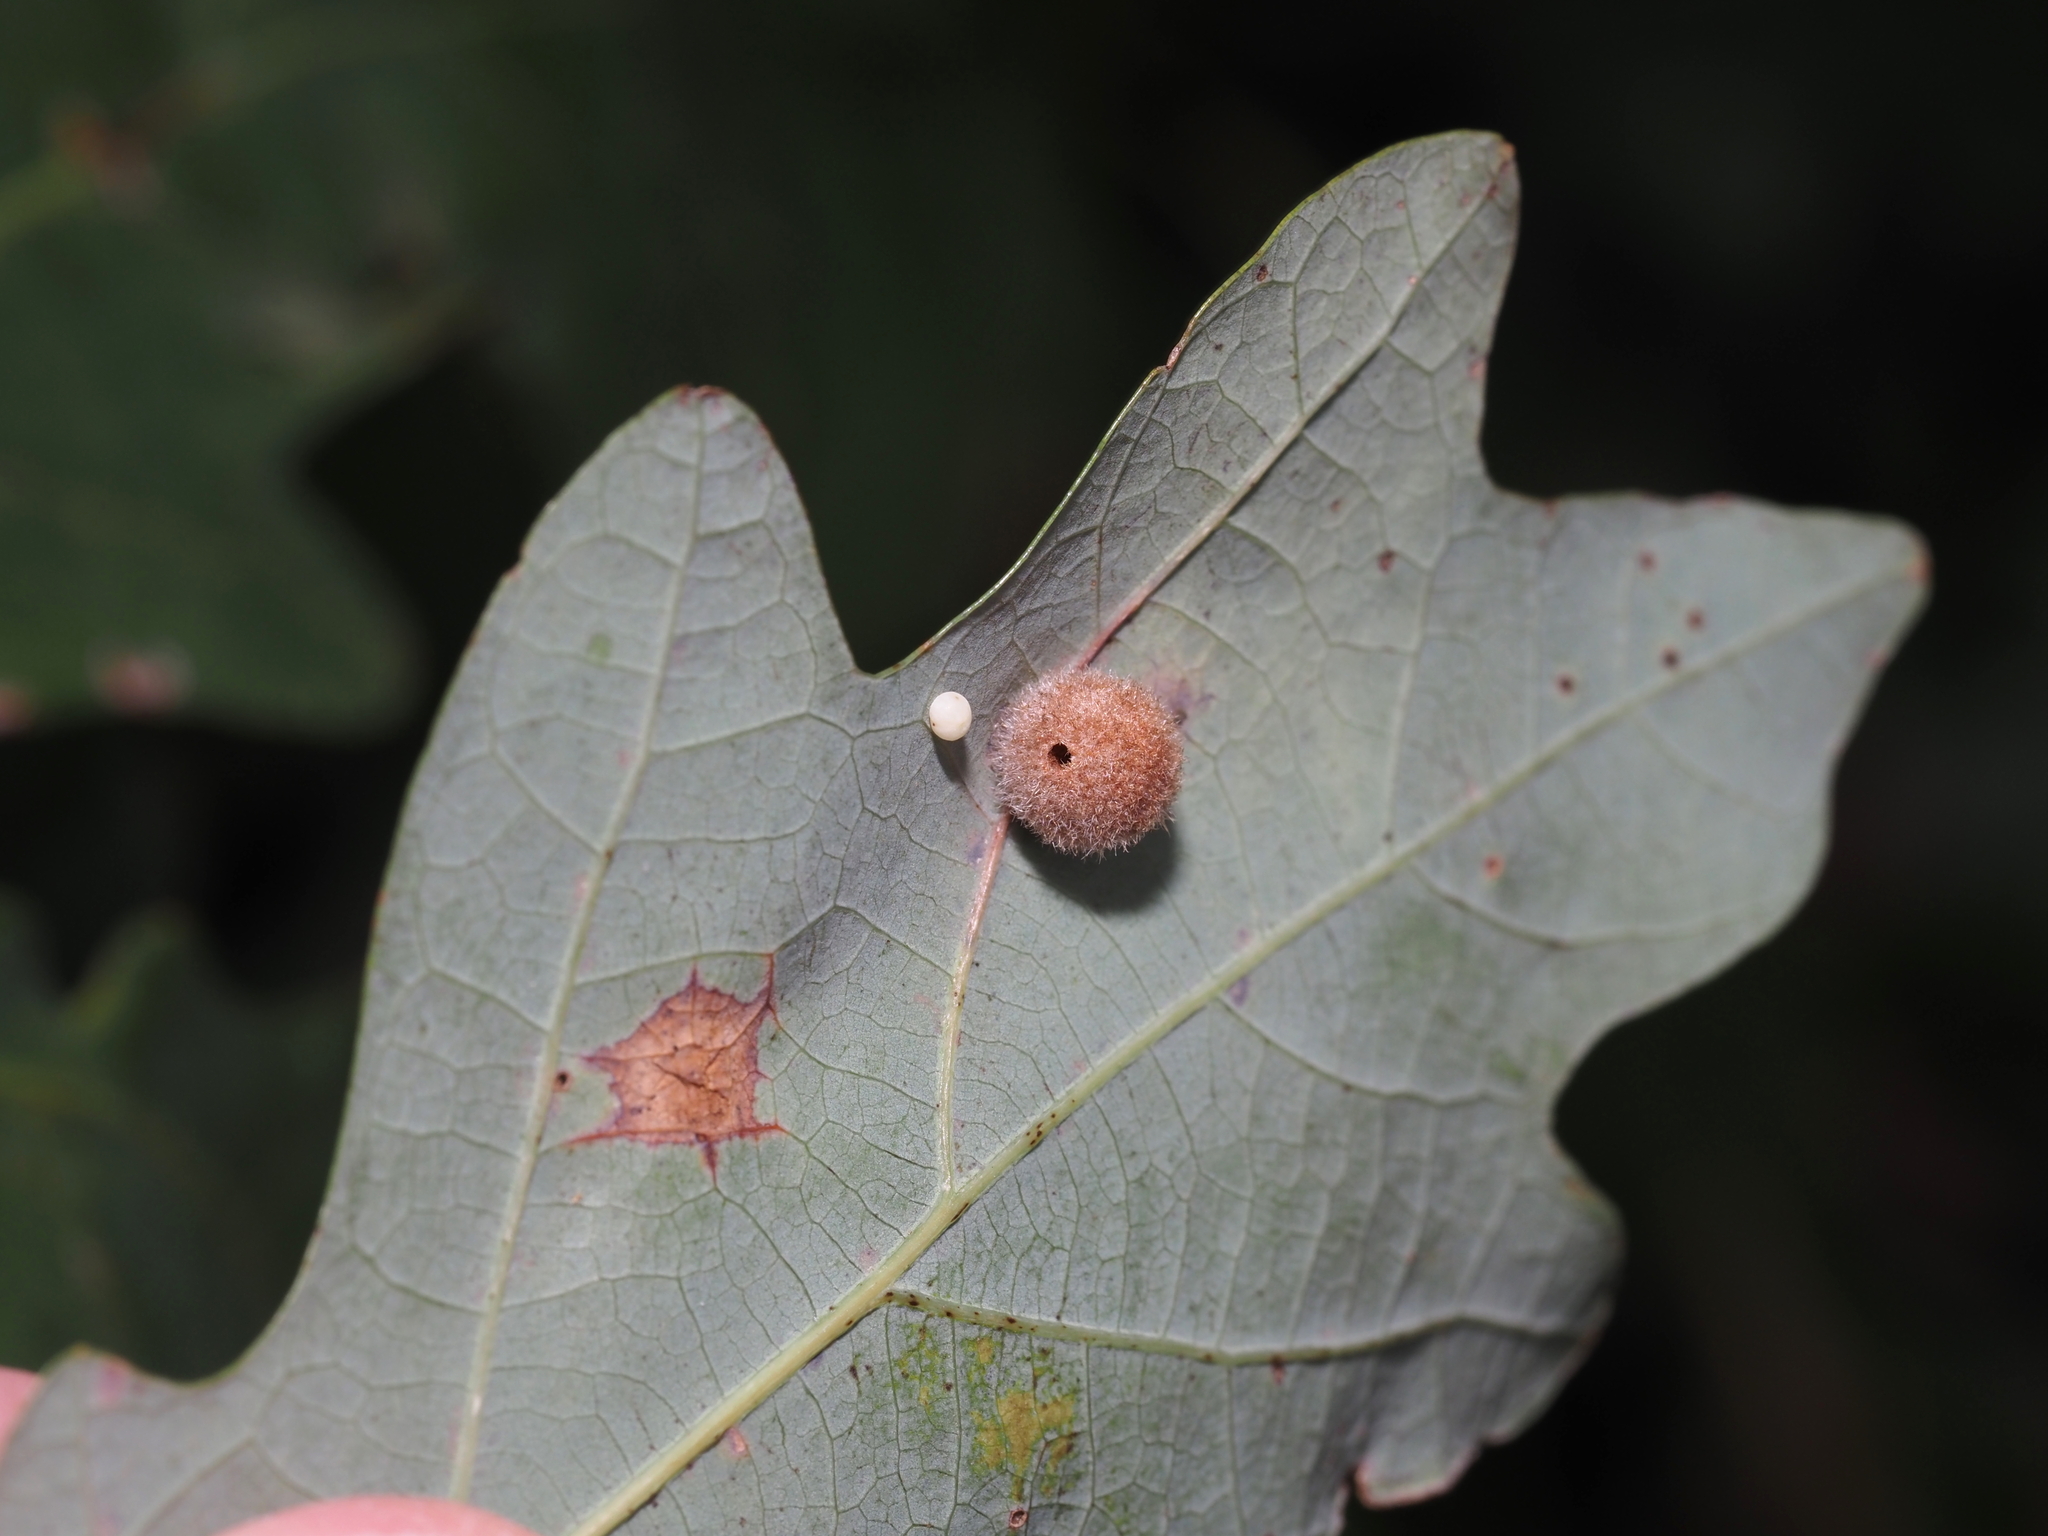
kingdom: Animalia
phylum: Arthropoda
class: Insecta
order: Hymenoptera
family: Cynipidae
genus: Philonix
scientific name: Philonix fulvicollis
